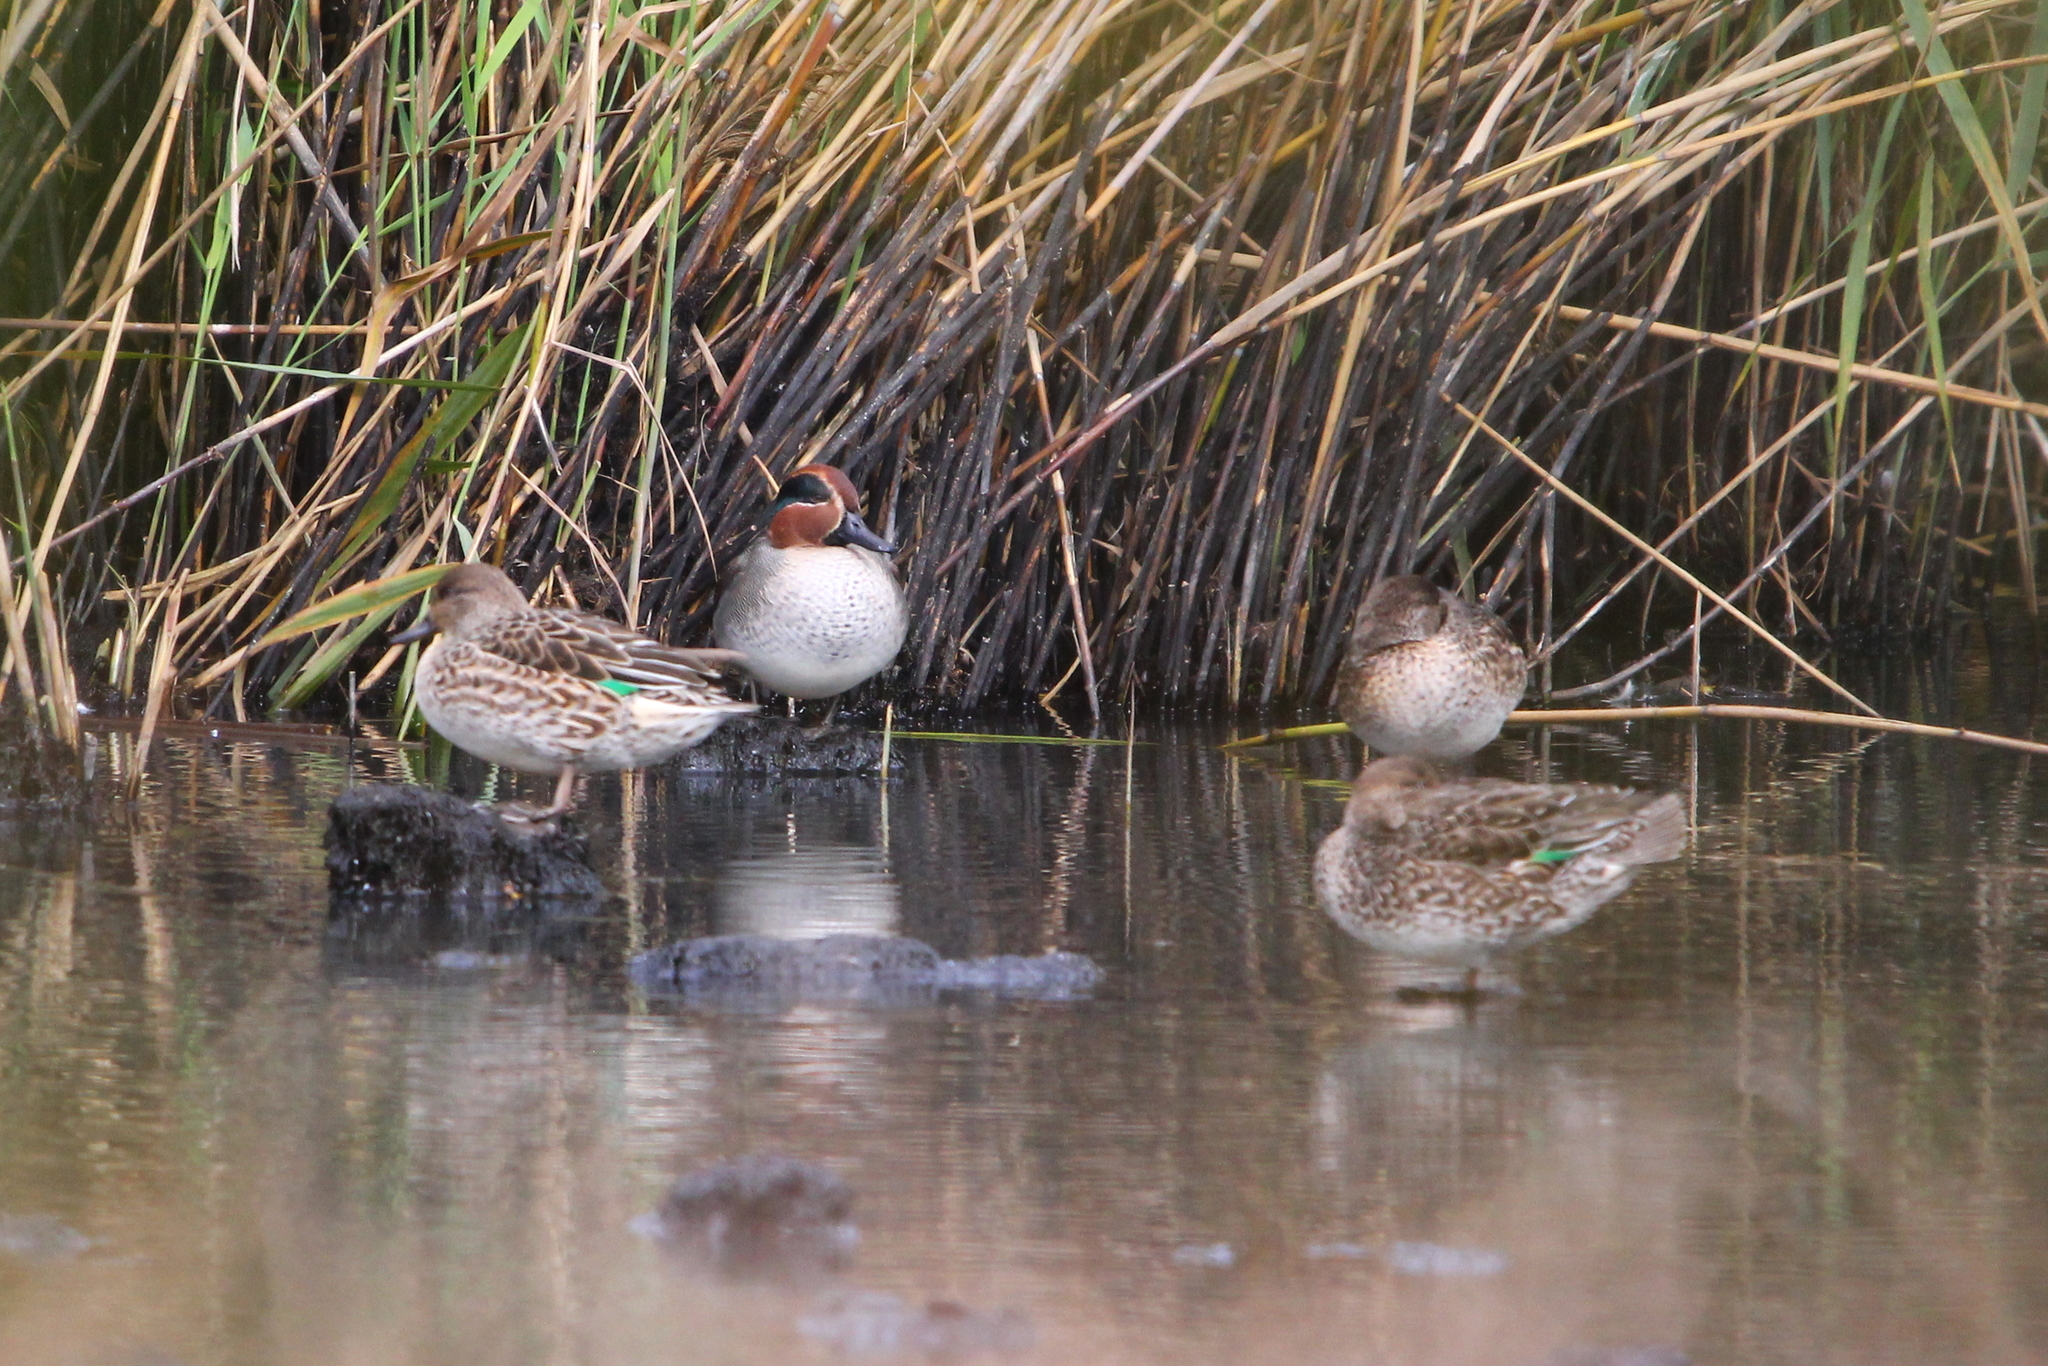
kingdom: Animalia
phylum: Chordata
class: Aves
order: Anseriformes
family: Anatidae
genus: Anas
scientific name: Anas crecca
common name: Eurasian teal
